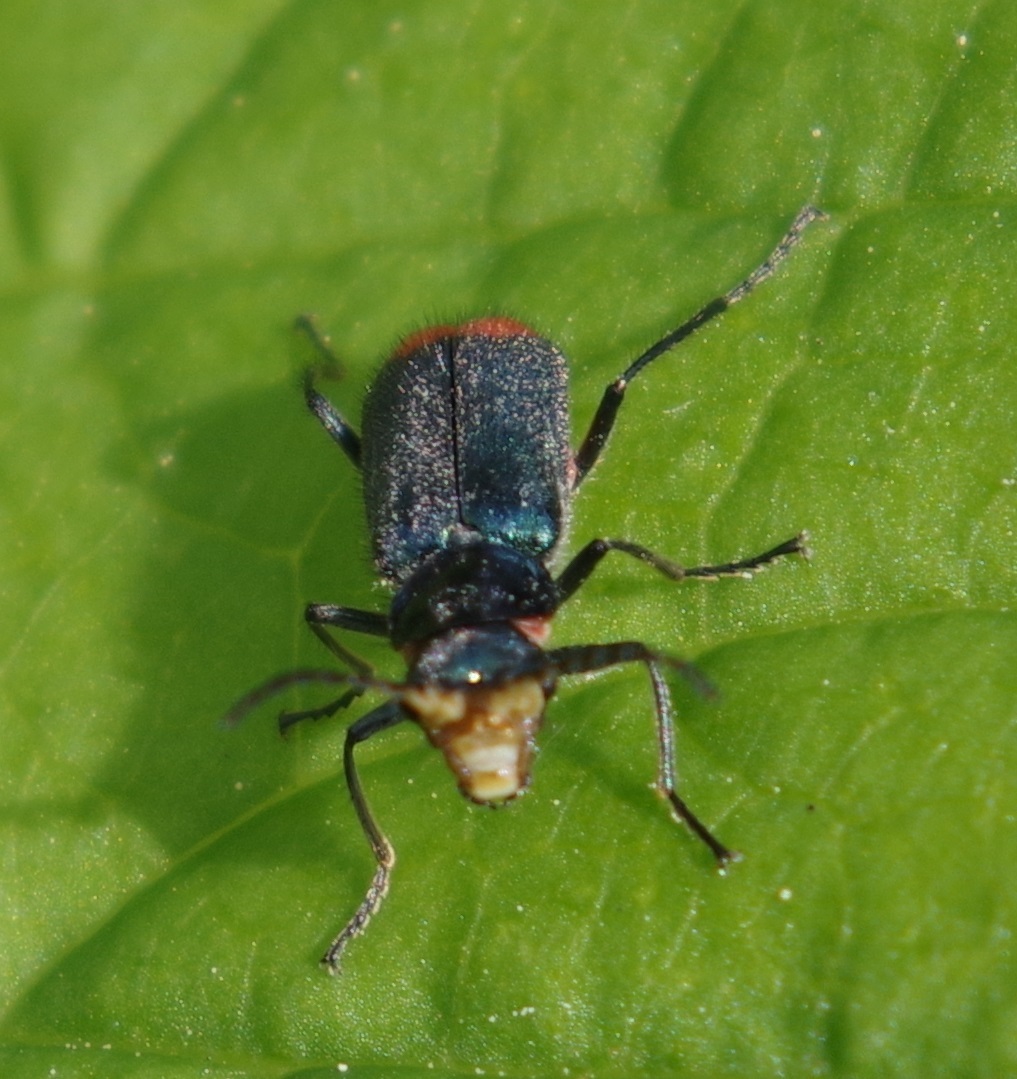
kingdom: Animalia
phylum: Arthropoda
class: Insecta
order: Coleoptera
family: Melyridae
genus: Malachius
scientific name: Malachius bipustulatus
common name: Malachite beetle
